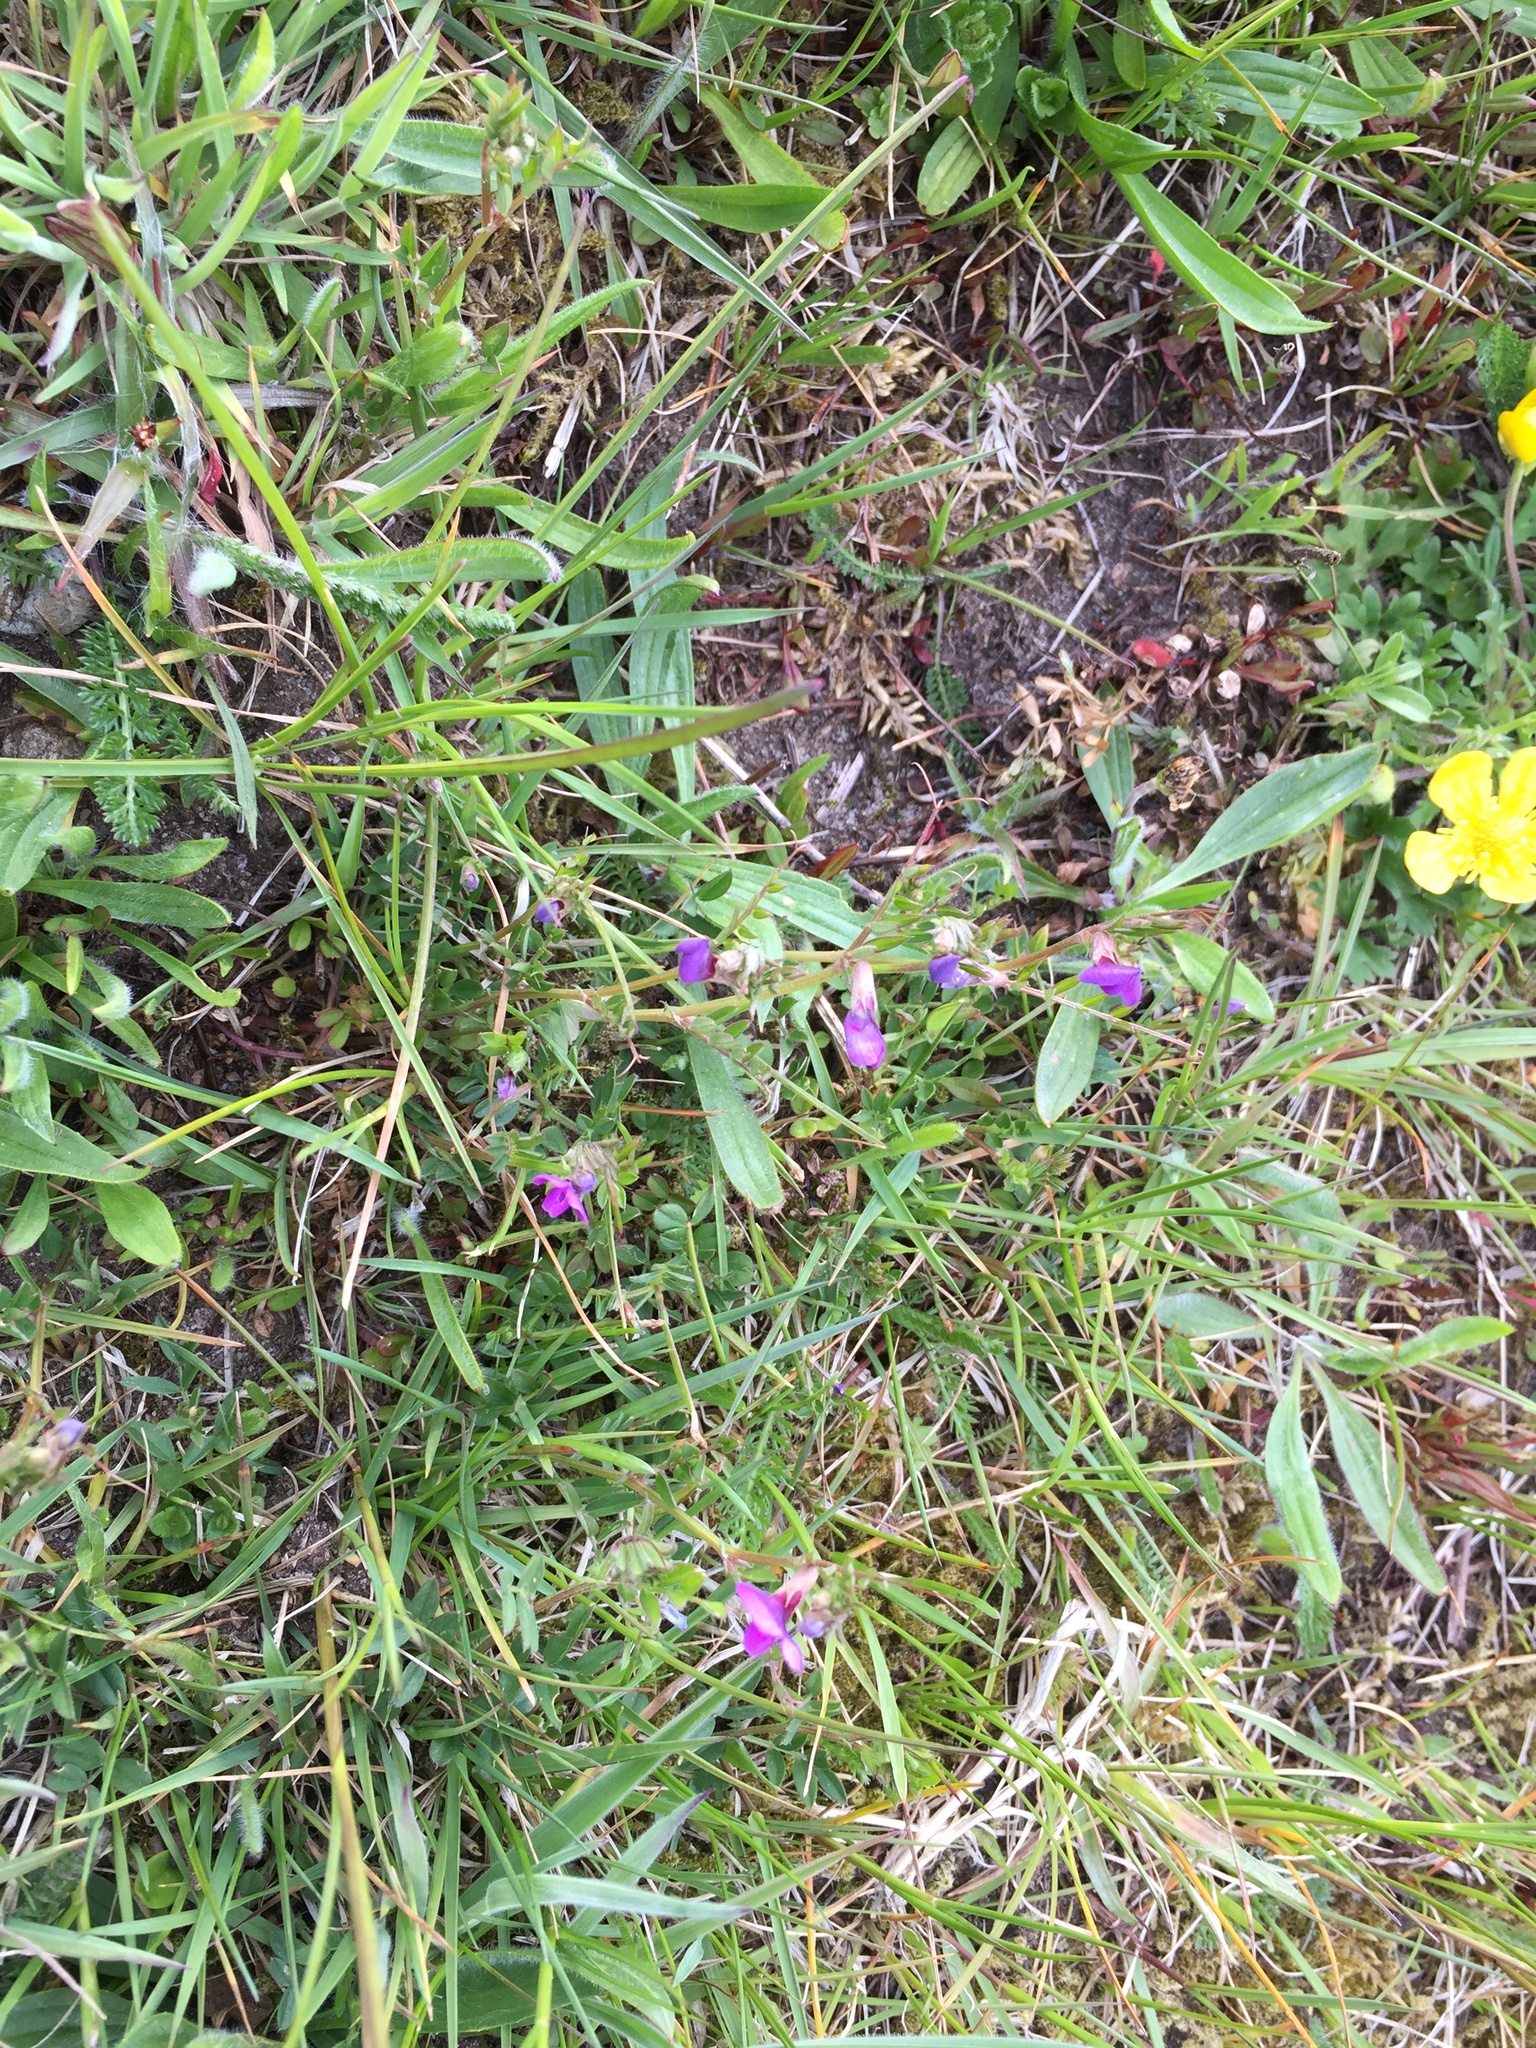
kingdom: Plantae
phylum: Tracheophyta
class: Magnoliopsida
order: Fabales
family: Fabaceae
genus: Vicia
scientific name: Vicia sativa
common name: Garden vetch
